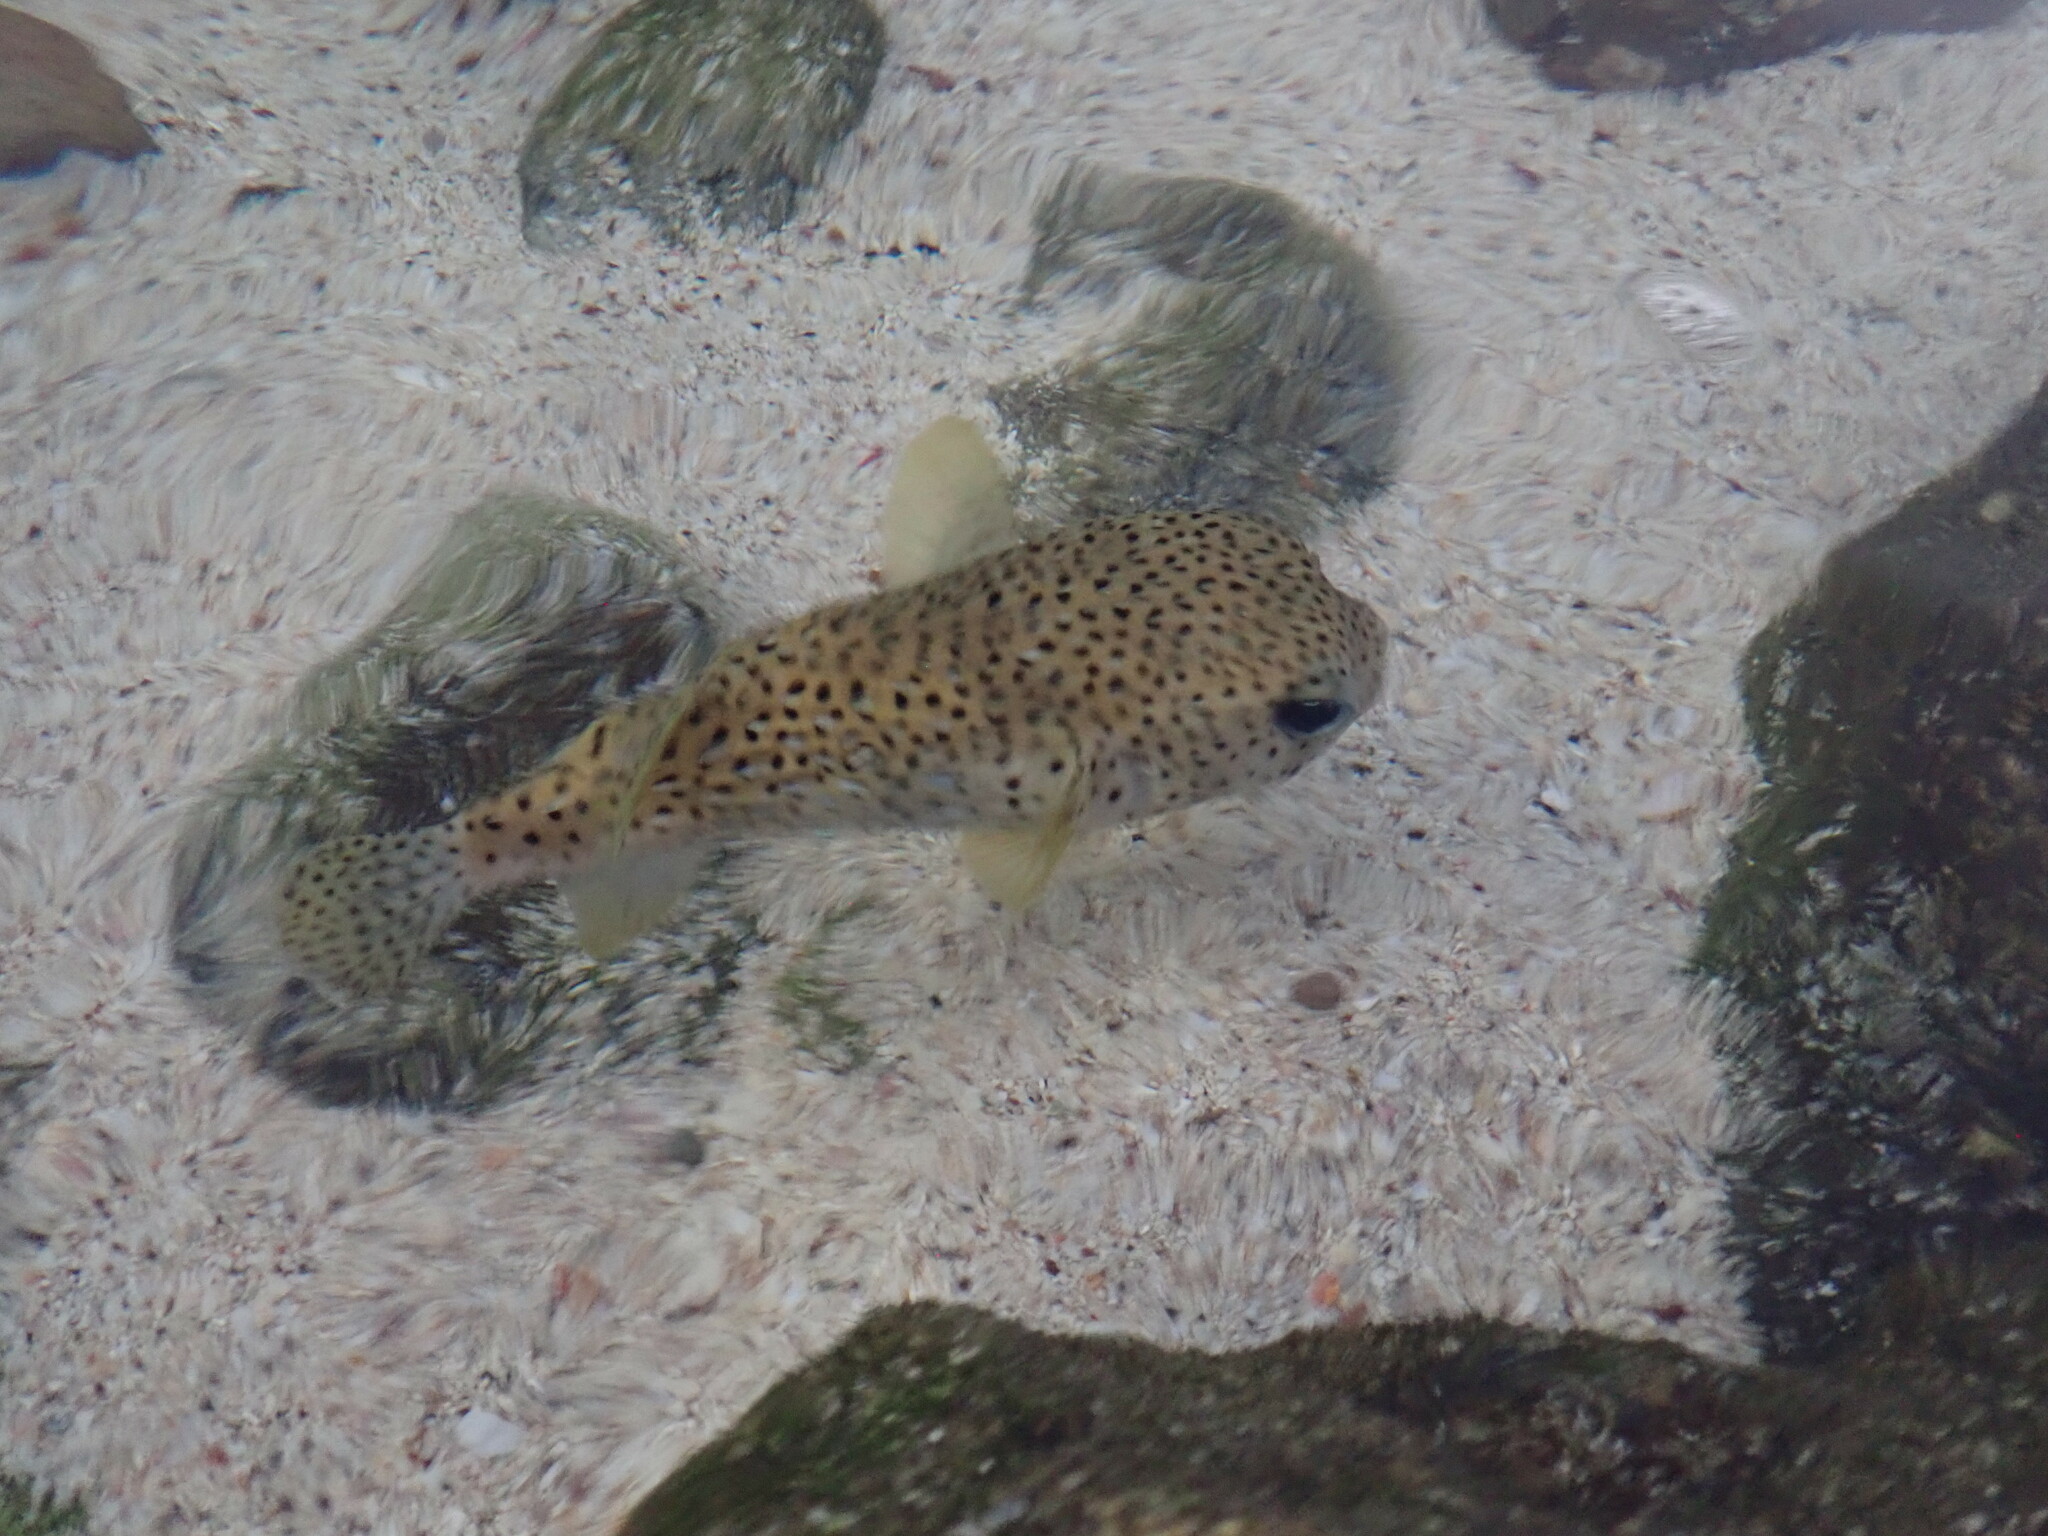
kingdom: Animalia
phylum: Chordata
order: Tetraodontiformes
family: Diodontidae
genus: Diodon
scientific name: Diodon hystrix
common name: Giant porcupinefish
